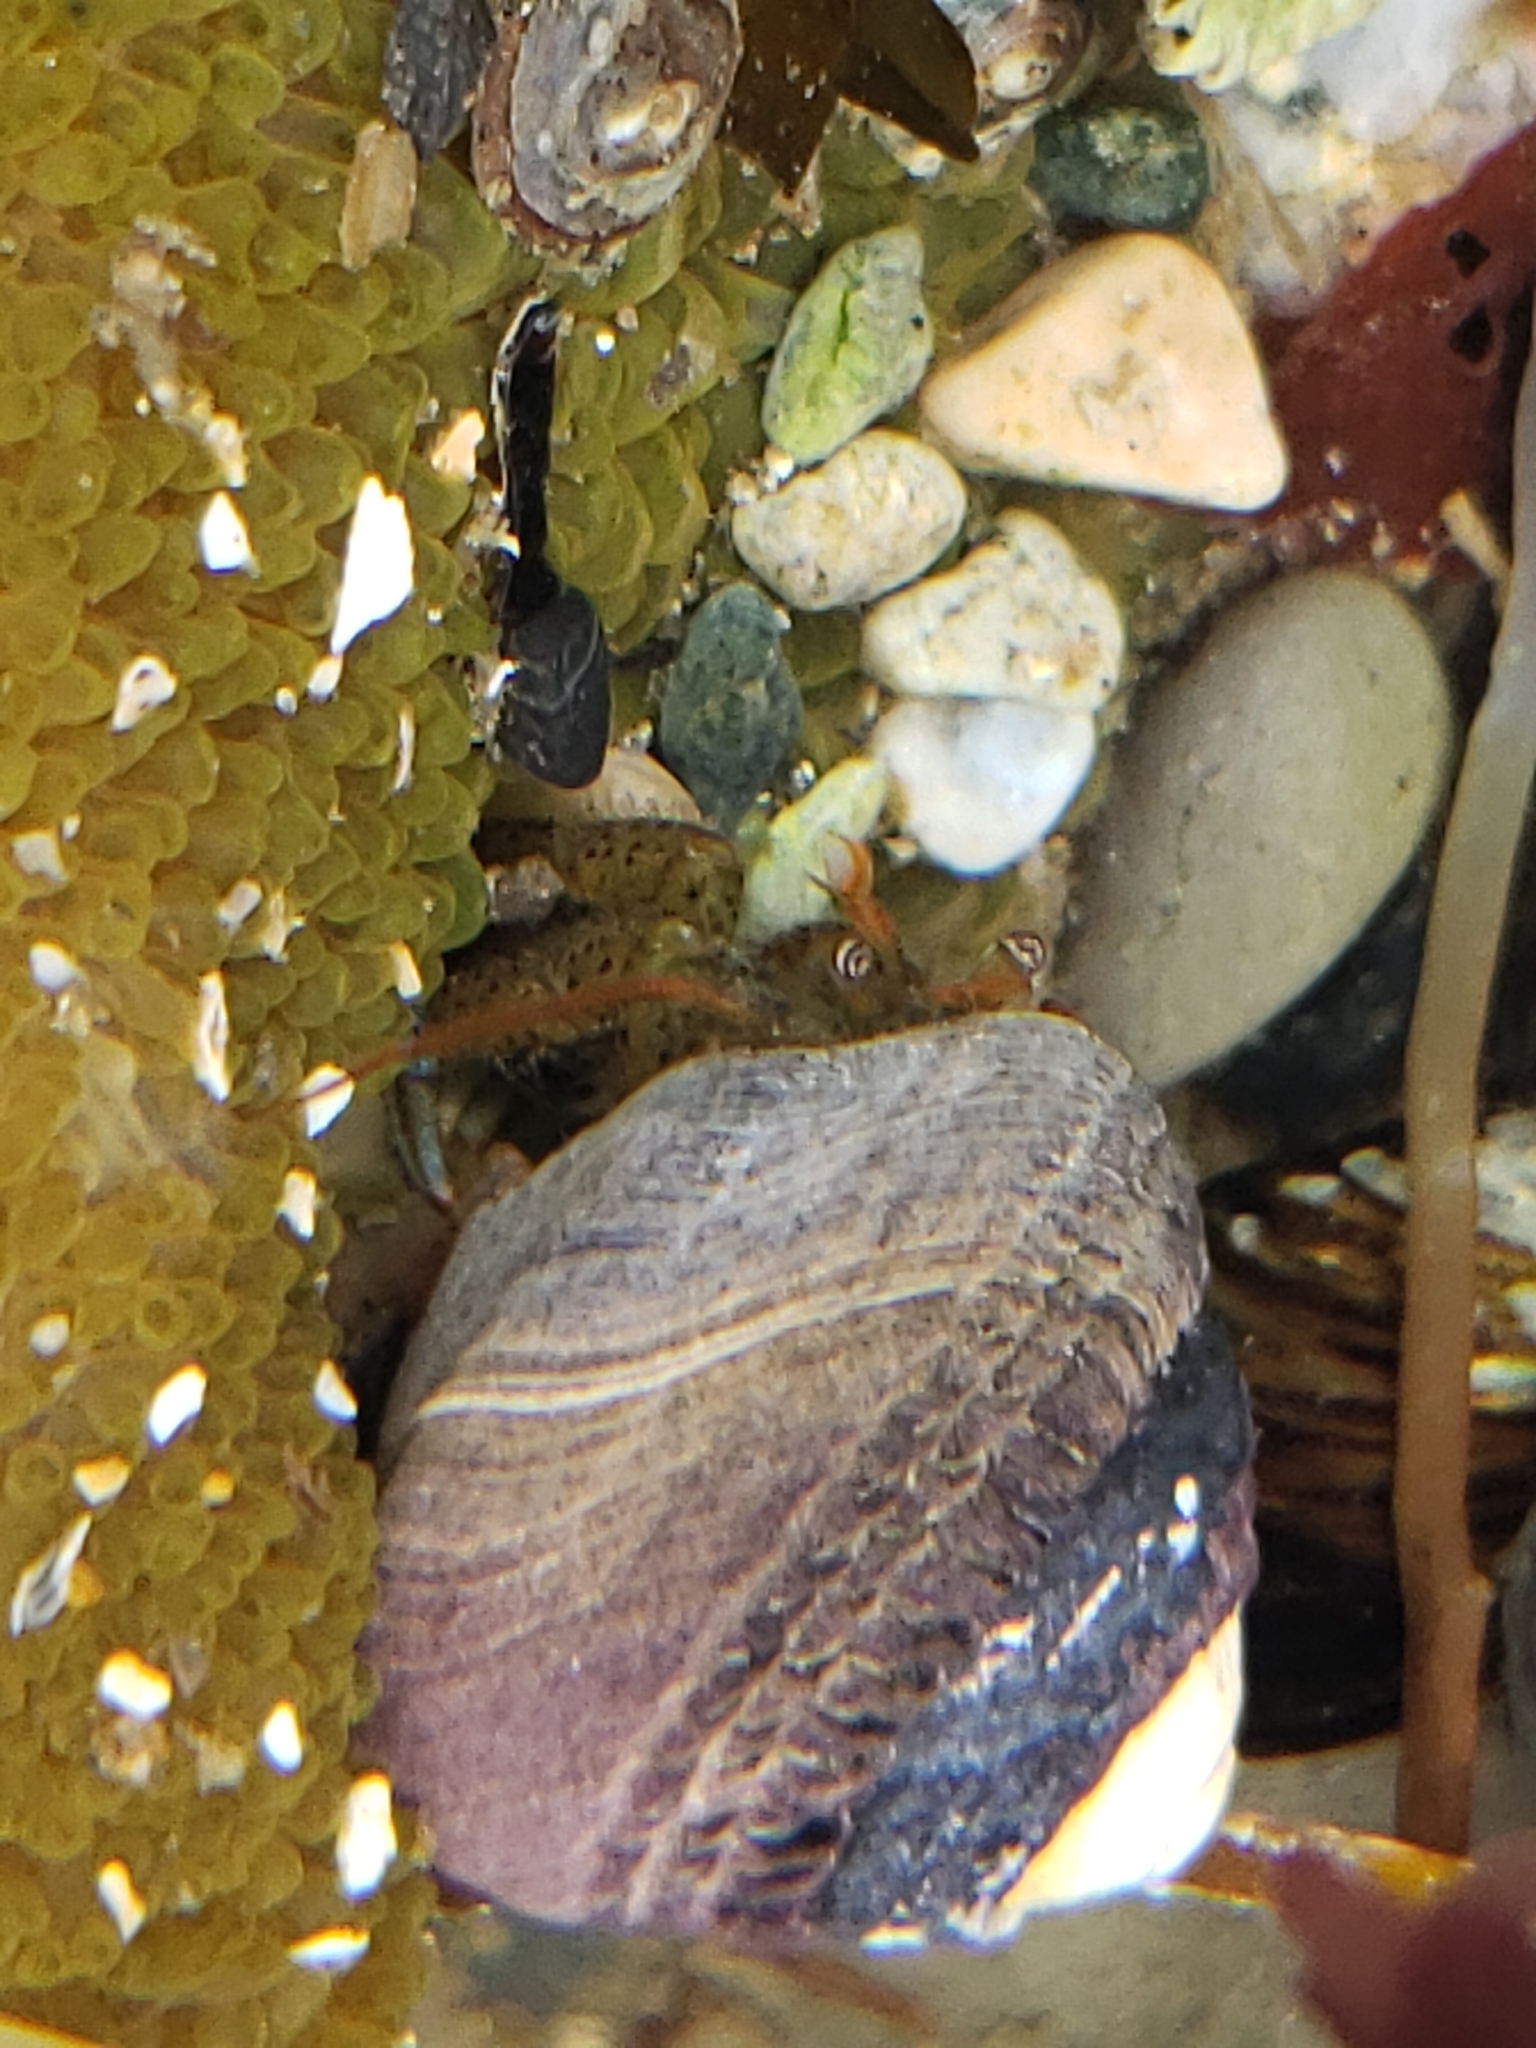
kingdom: Animalia
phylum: Arthropoda
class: Malacostraca
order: Decapoda
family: Paguridae
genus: Pagurus
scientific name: Pagurus samuelis
